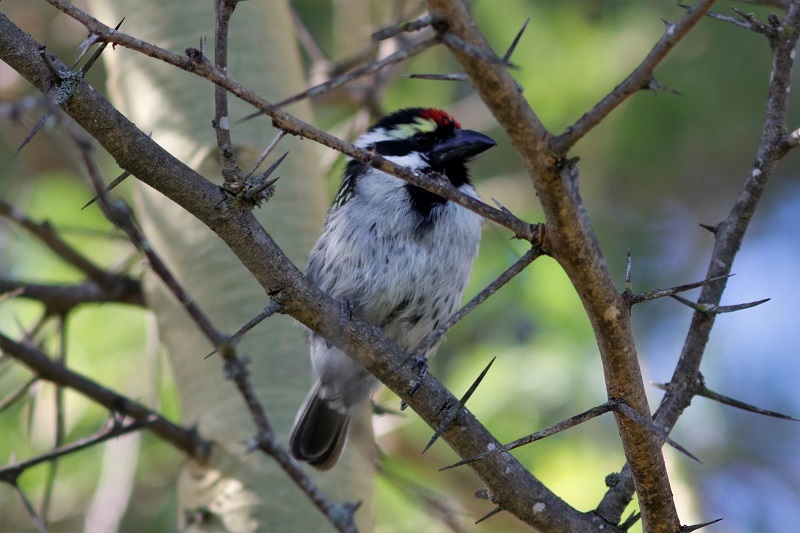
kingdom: Animalia
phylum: Chordata
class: Aves
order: Piciformes
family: Lybiidae
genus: Tricholaema
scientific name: Tricholaema leucomelas
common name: Acacia pied barbet
